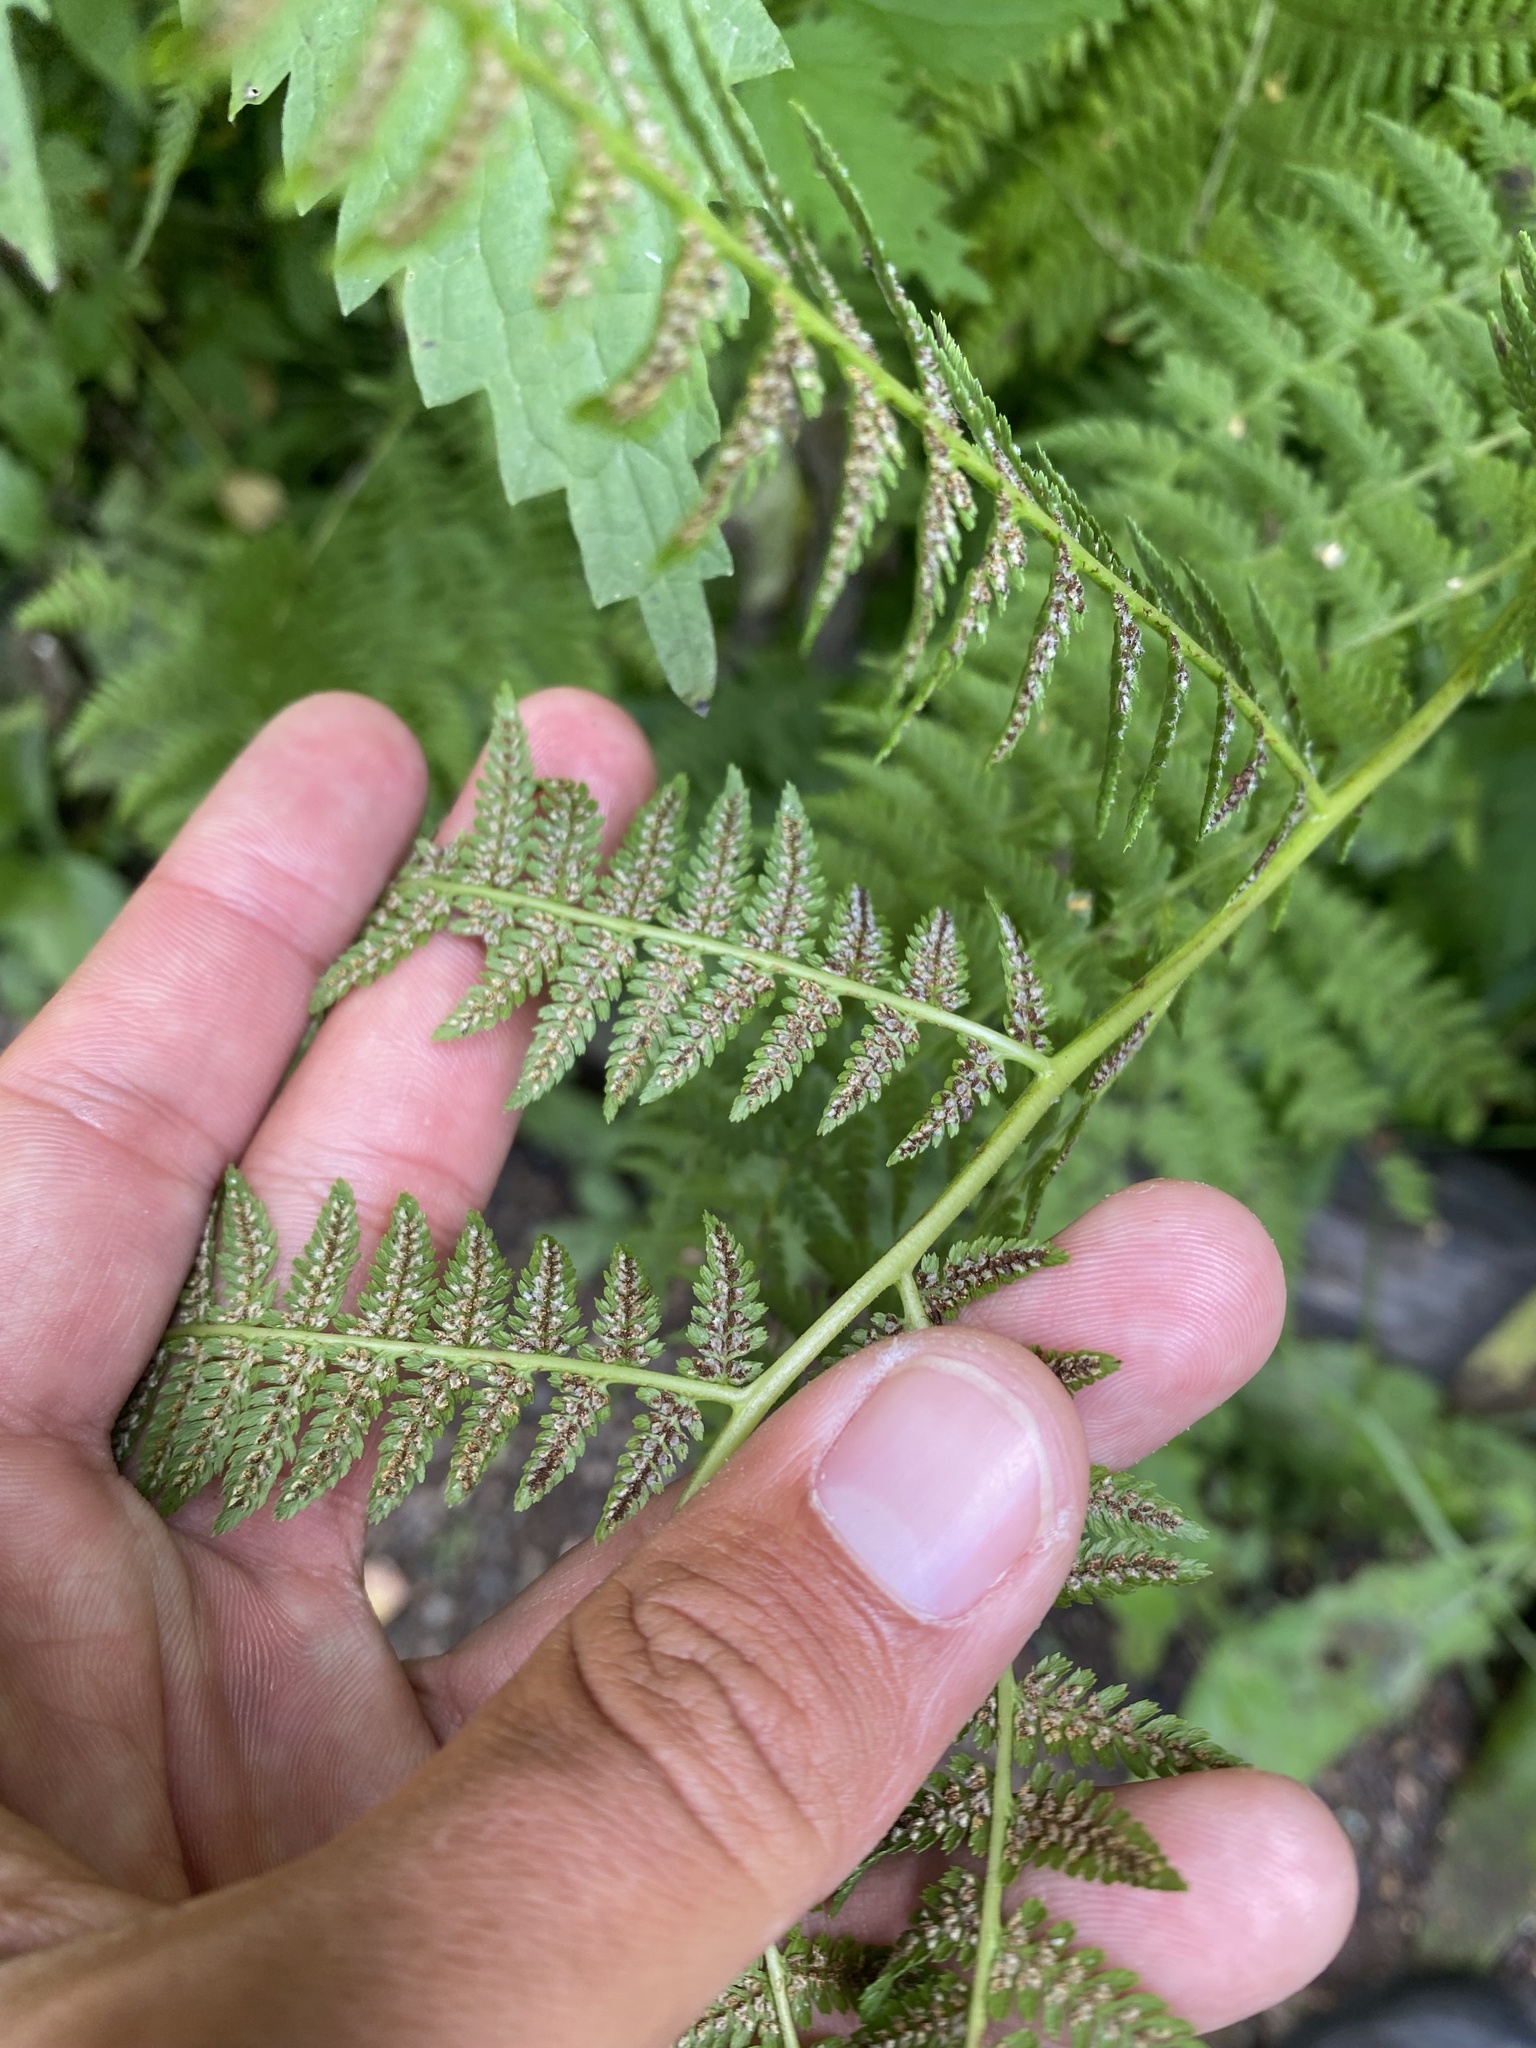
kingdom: Plantae
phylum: Tracheophyta
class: Polypodiopsida
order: Polypodiales
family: Athyriaceae
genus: Athyrium
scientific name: Athyrium filix-femina
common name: Lady fern
